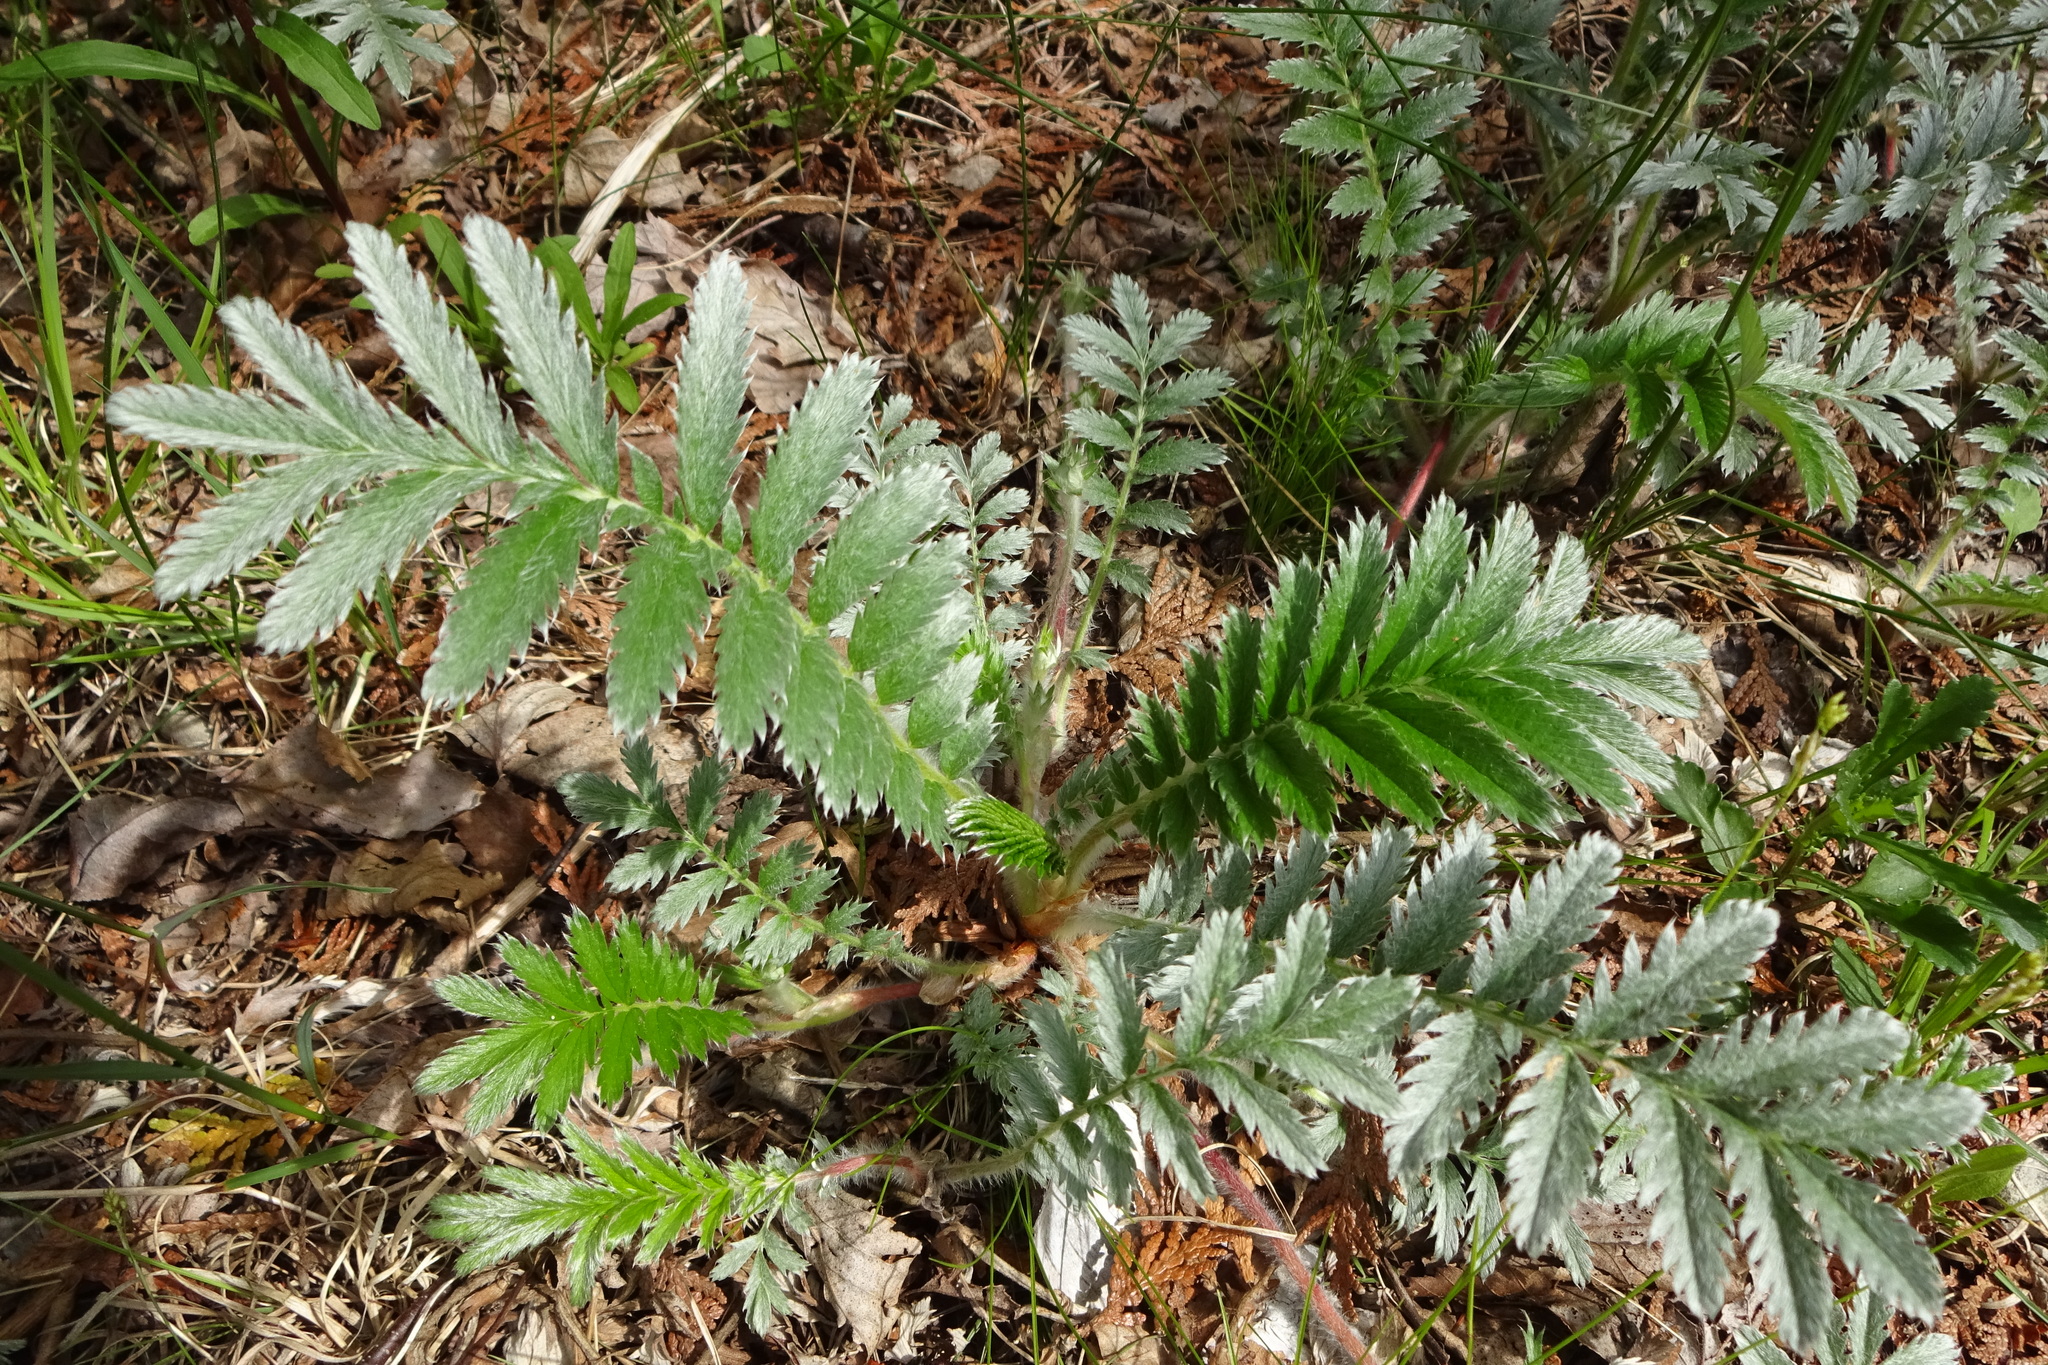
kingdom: Plantae
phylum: Tracheophyta
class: Magnoliopsida
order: Rosales
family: Rosaceae
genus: Argentina
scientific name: Argentina anserina
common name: Common silverweed
